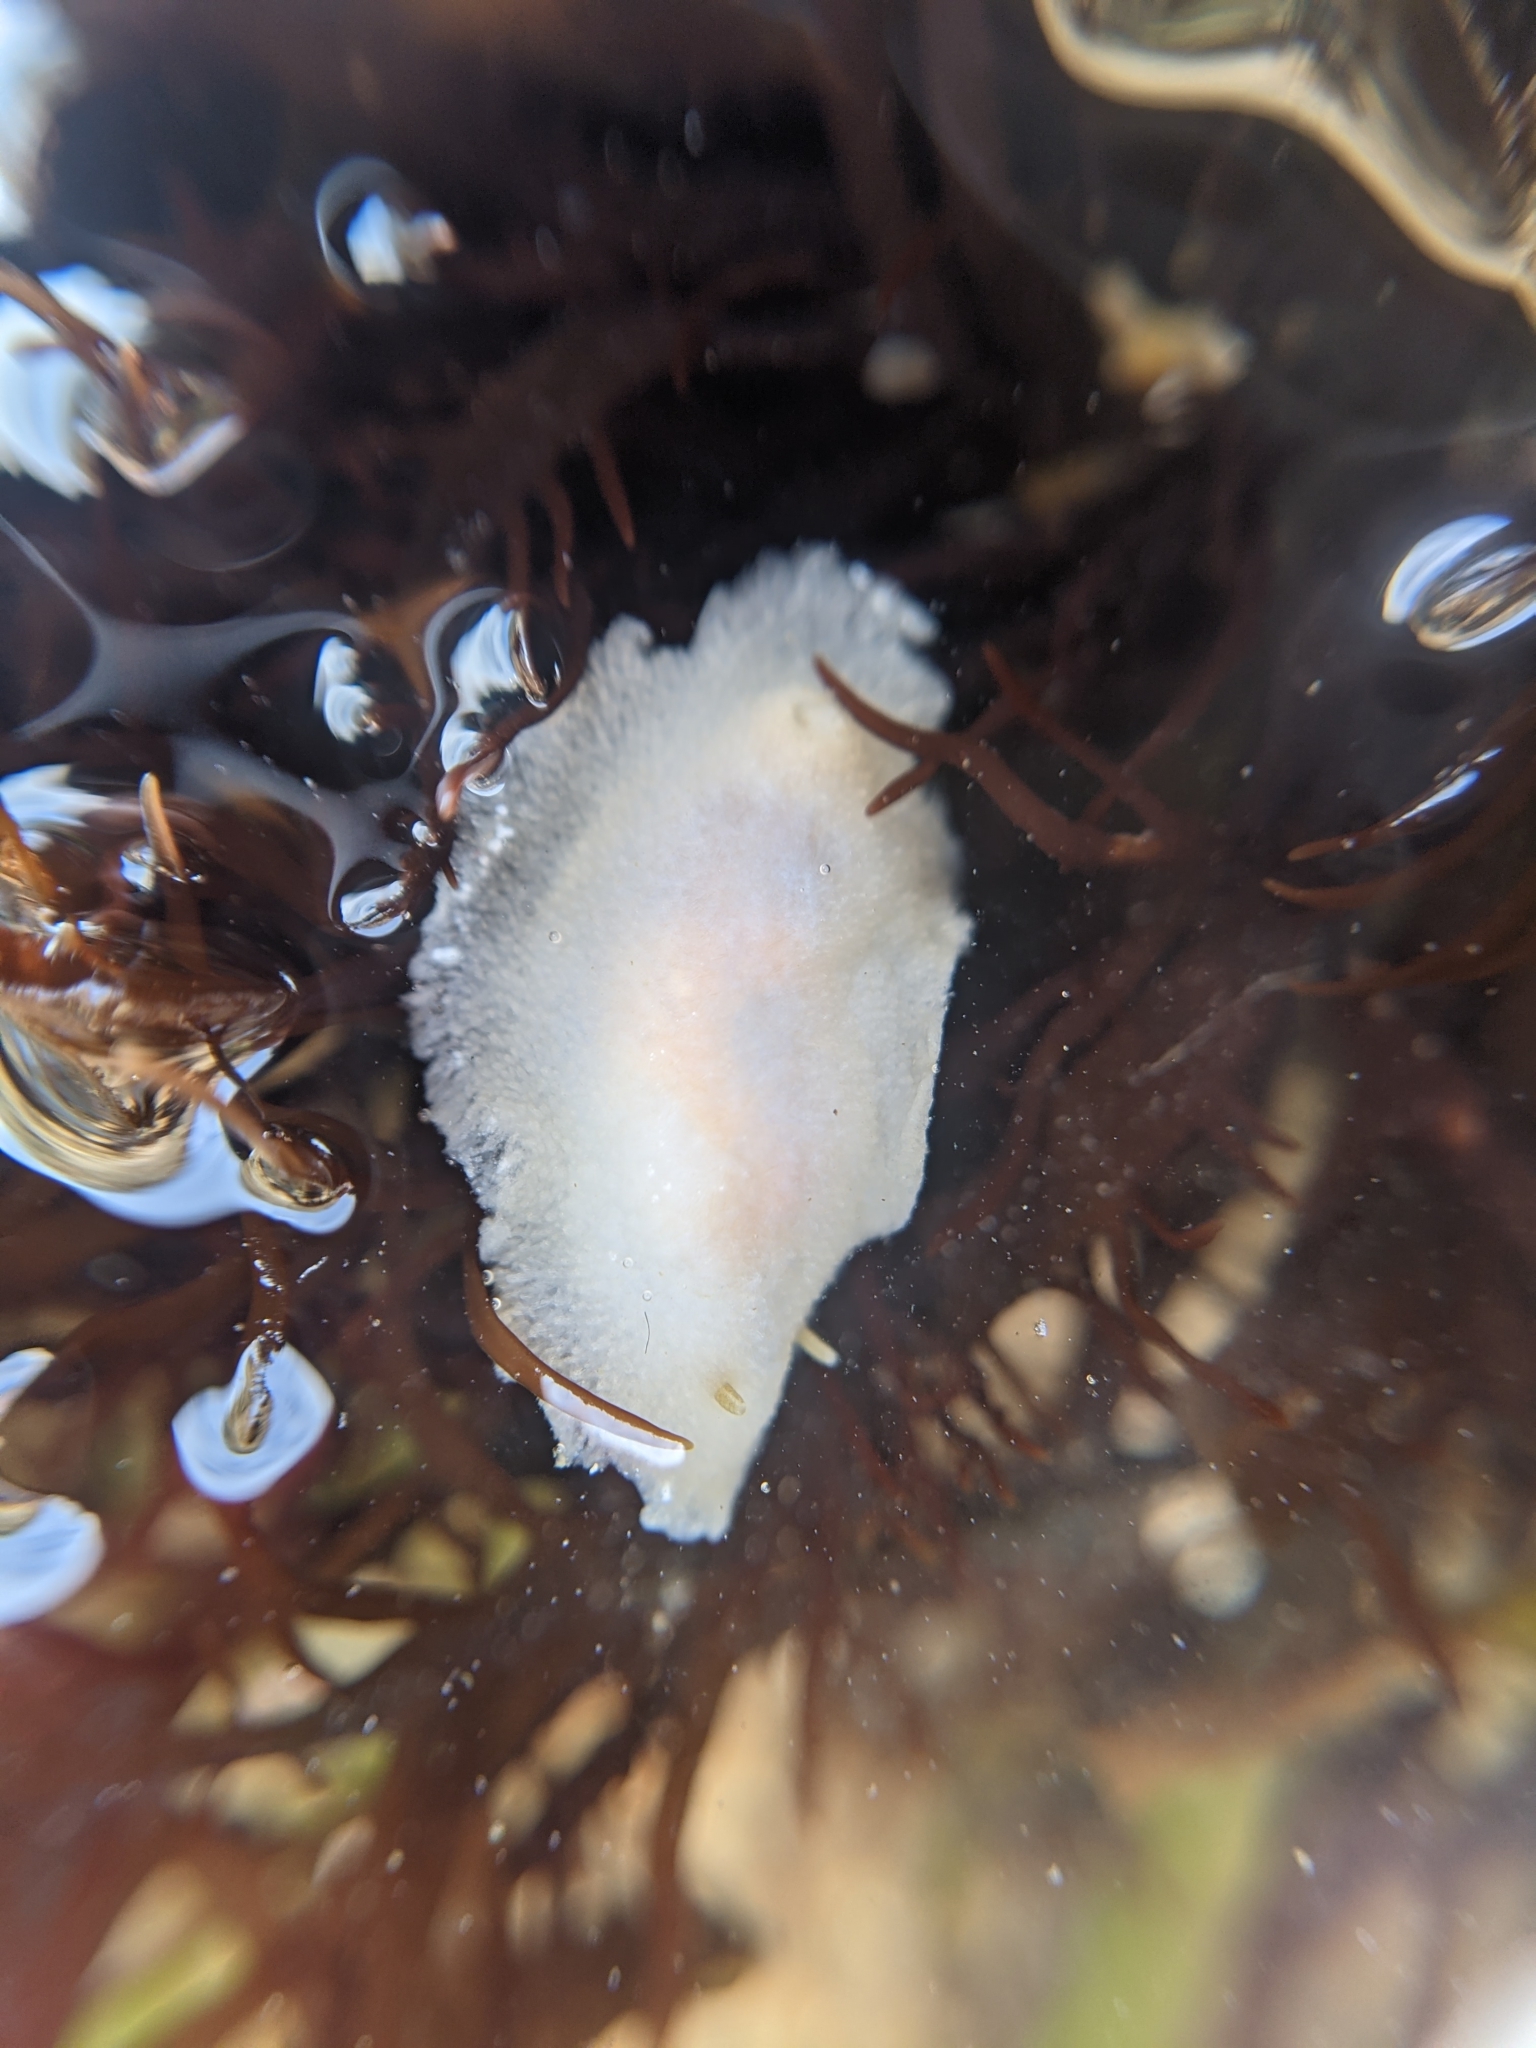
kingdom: Animalia
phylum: Mollusca
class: Gastropoda
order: Nudibranchia
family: Dorididae
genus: Conualevia
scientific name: Conualevia alba
